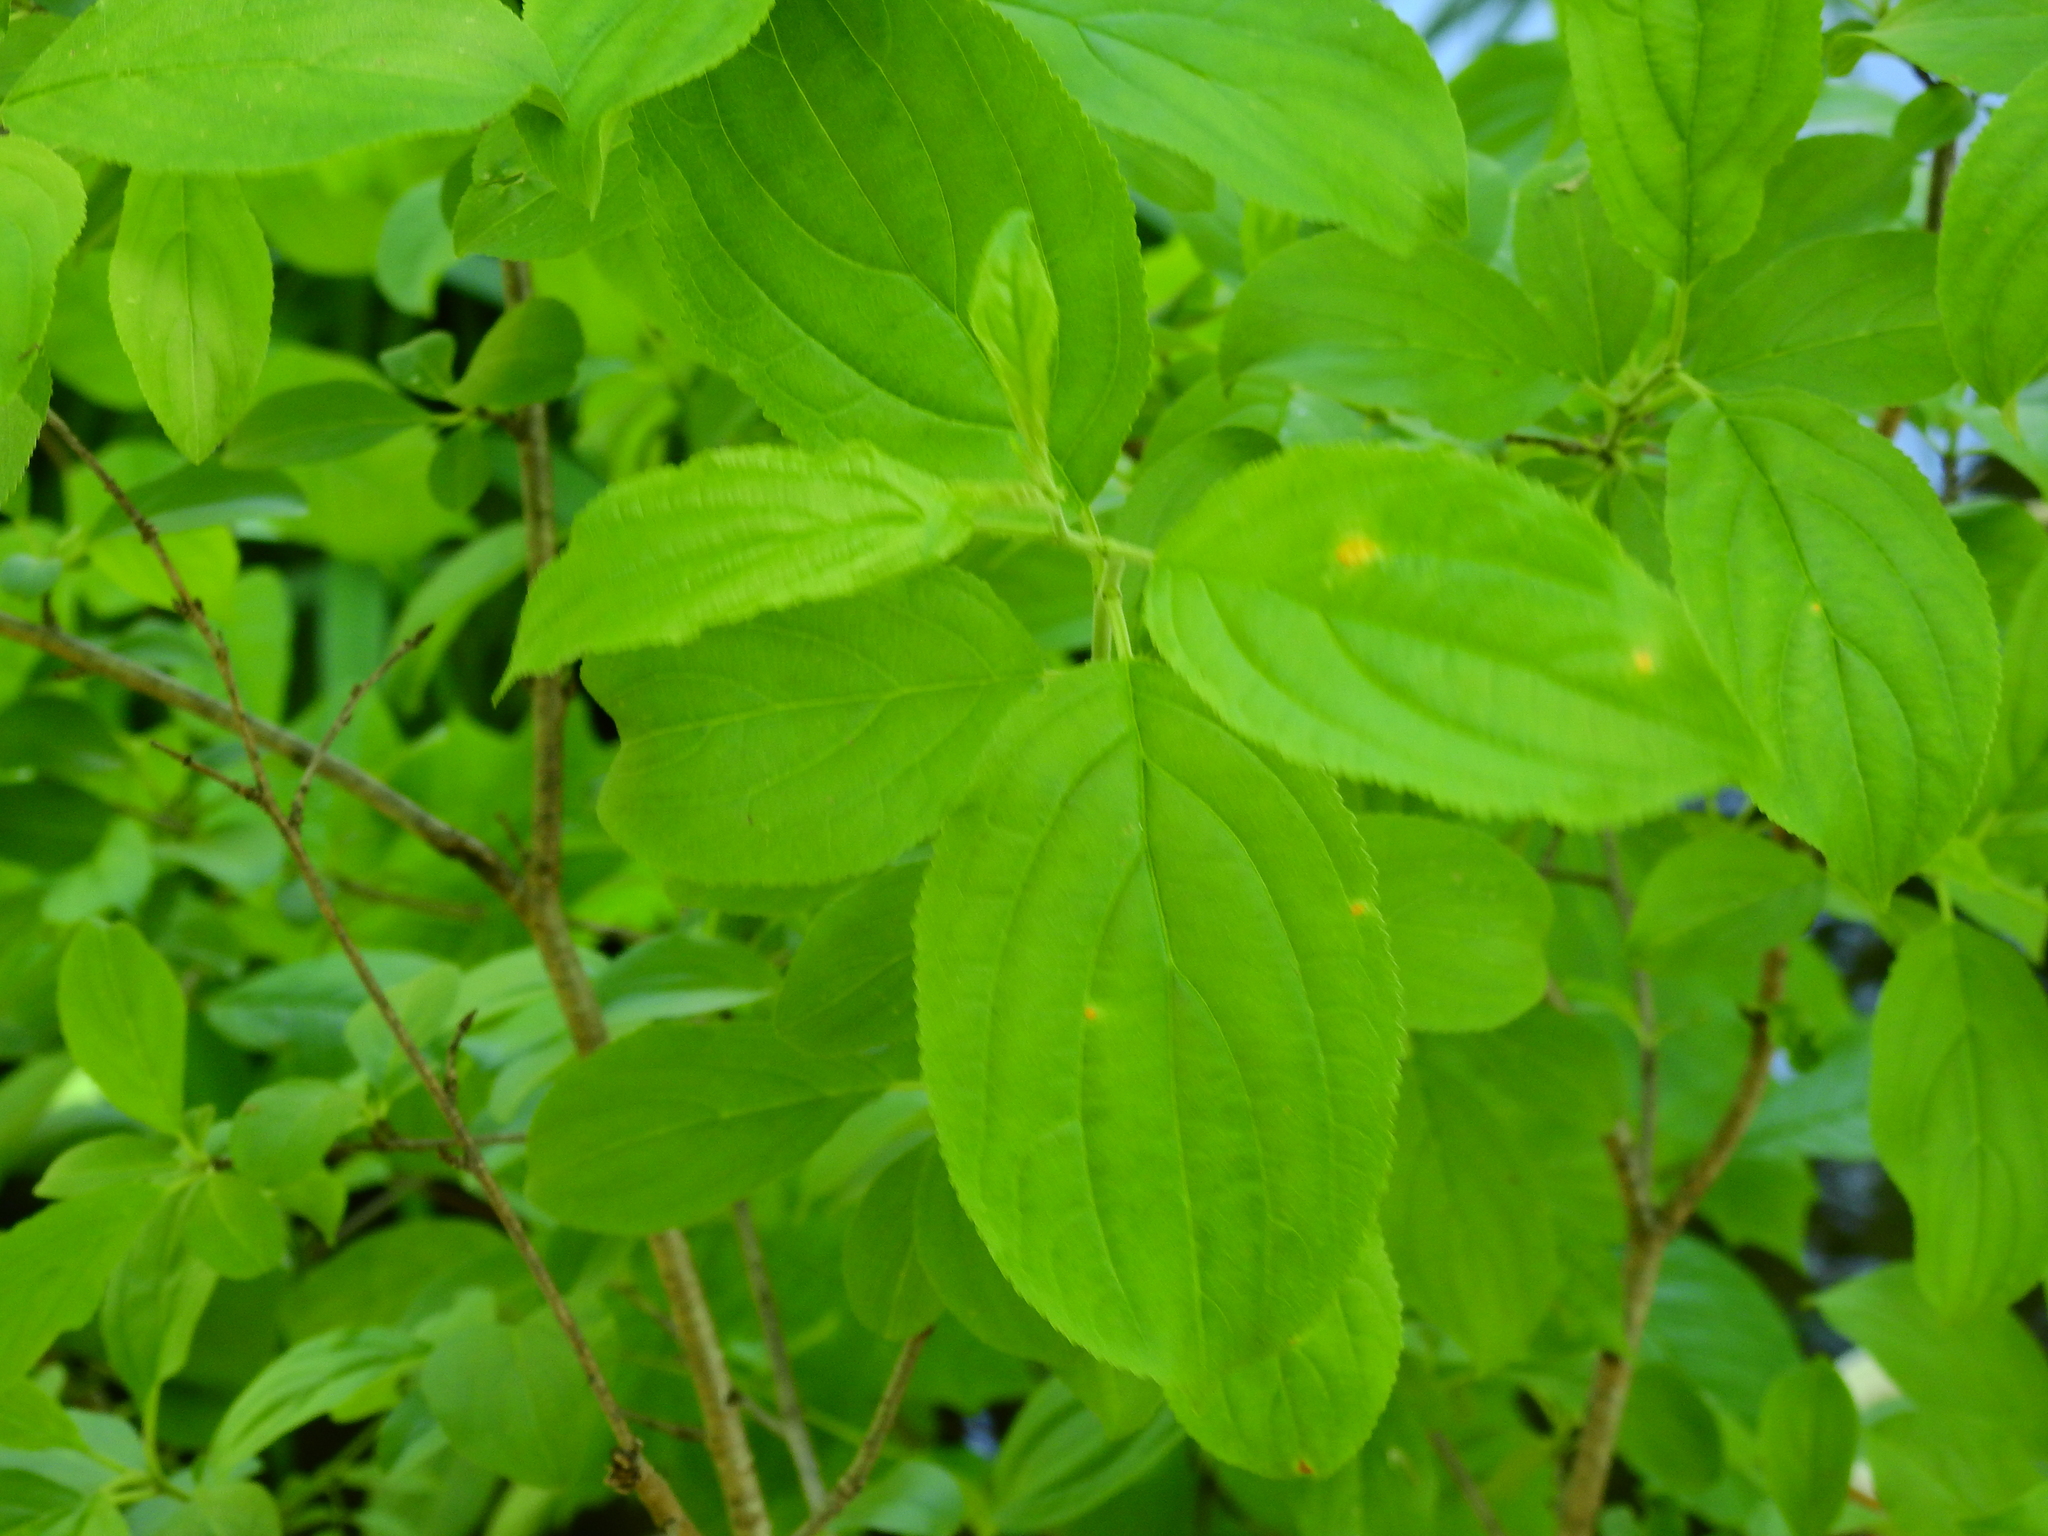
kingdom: Plantae
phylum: Tracheophyta
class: Magnoliopsida
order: Rosales
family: Rhamnaceae
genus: Rhamnus
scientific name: Rhamnus cathartica
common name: Common buckthorn
